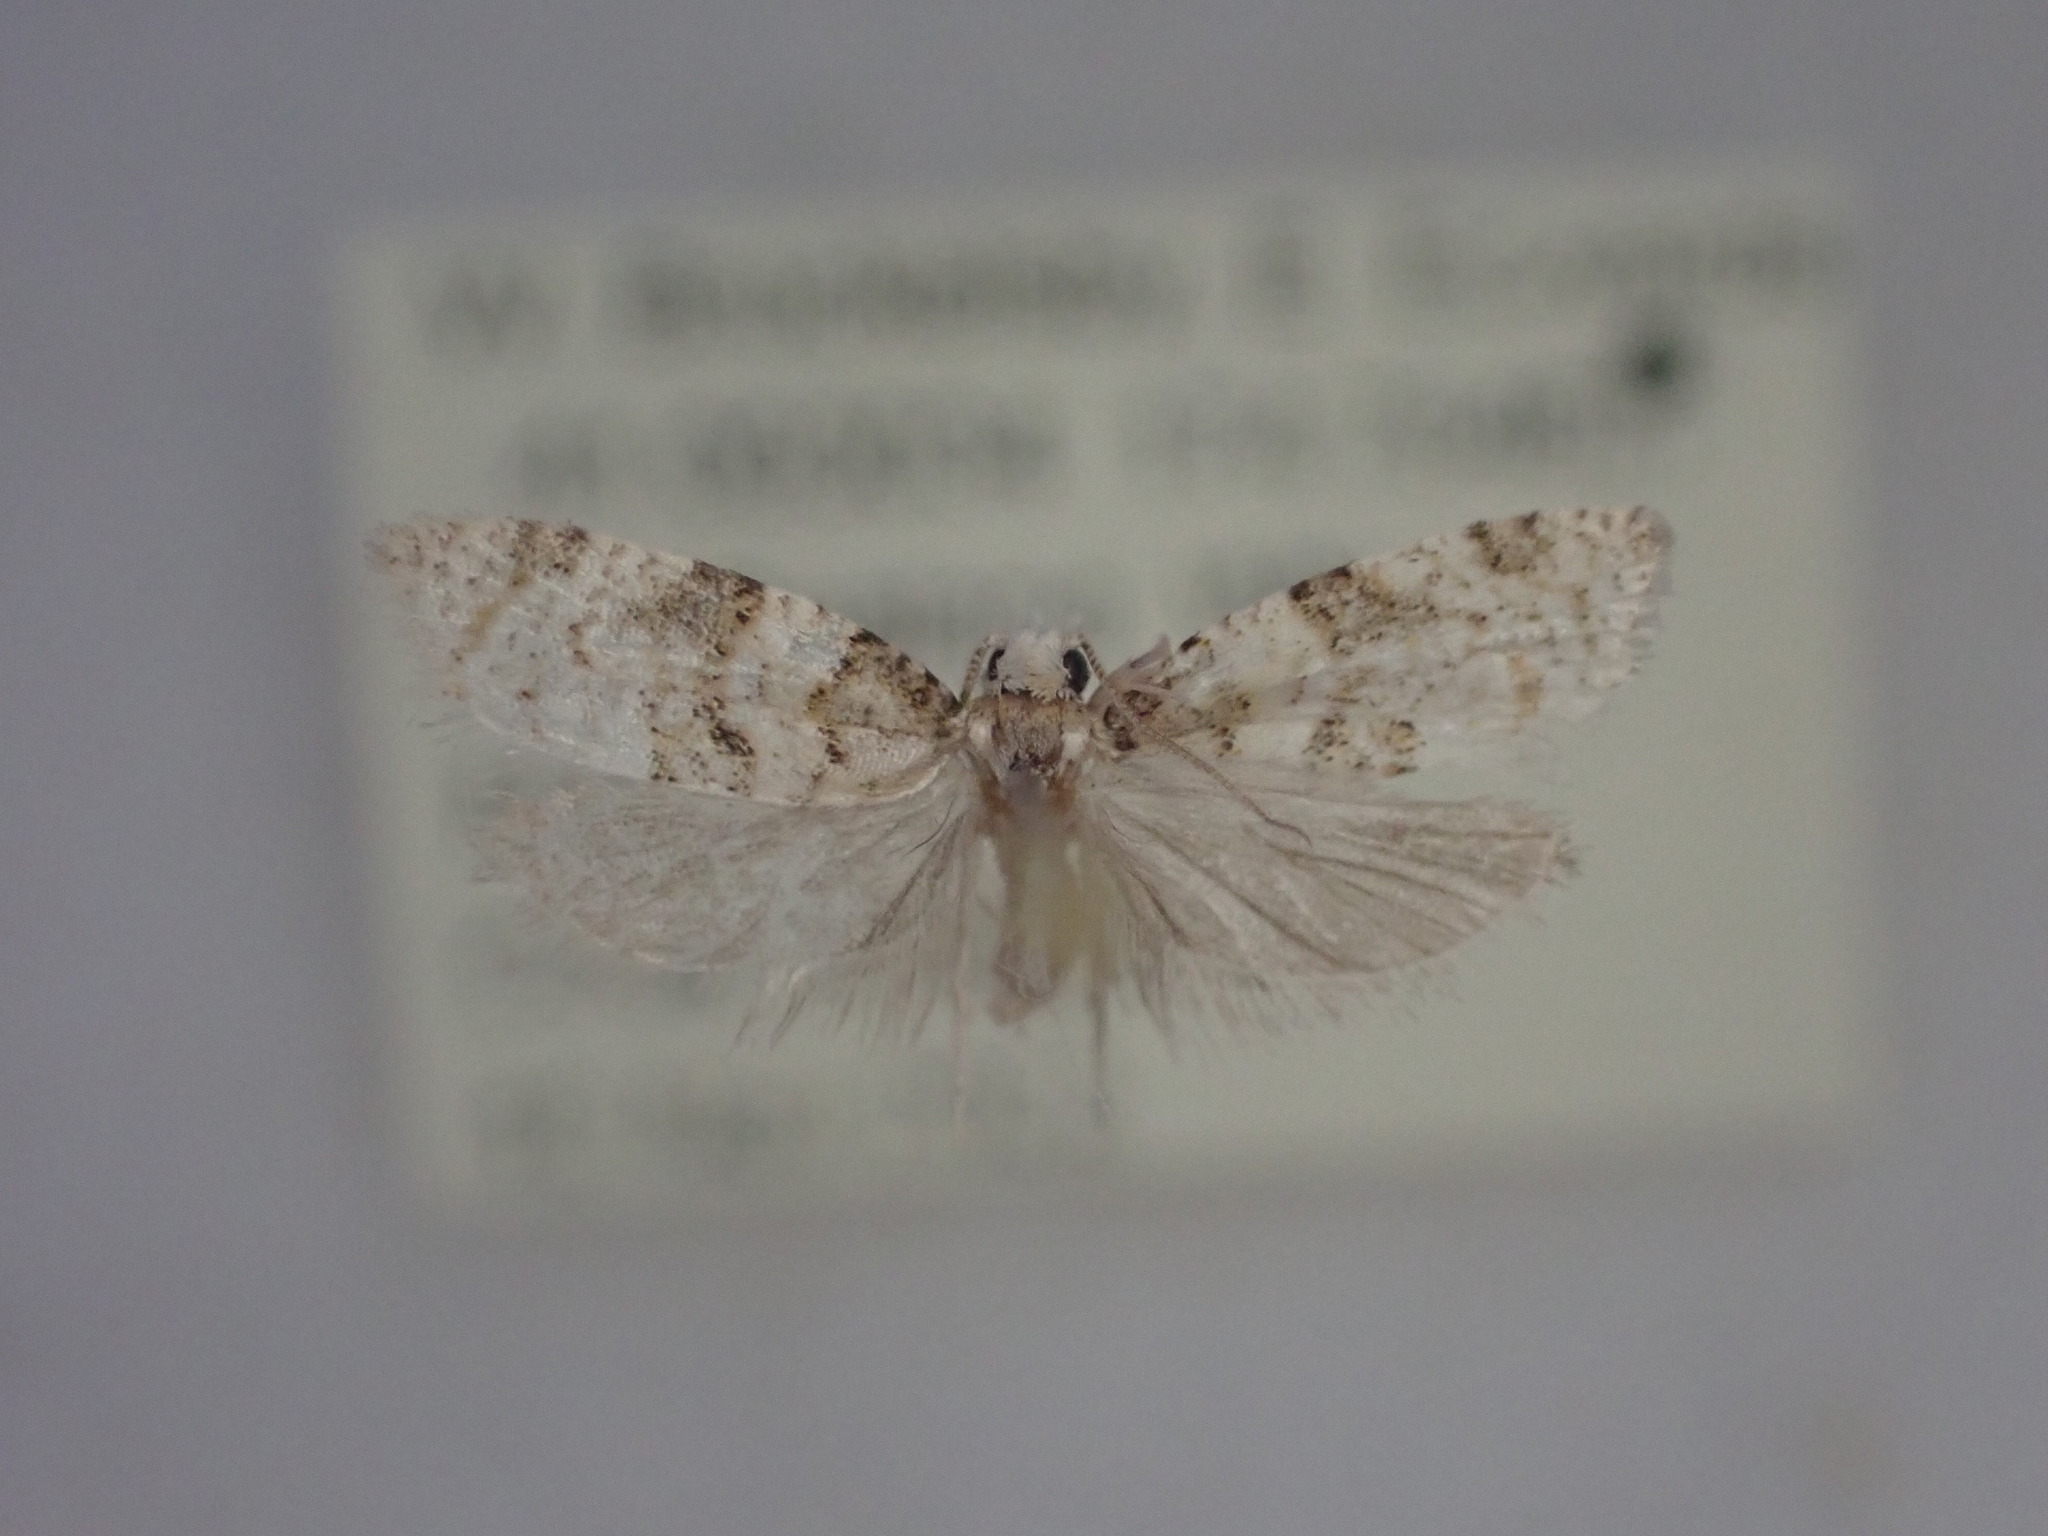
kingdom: Animalia
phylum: Arthropoda
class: Insecta
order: Lepidoptera
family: Tortricidae
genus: Dipterina
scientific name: Dipterina imbriferana
